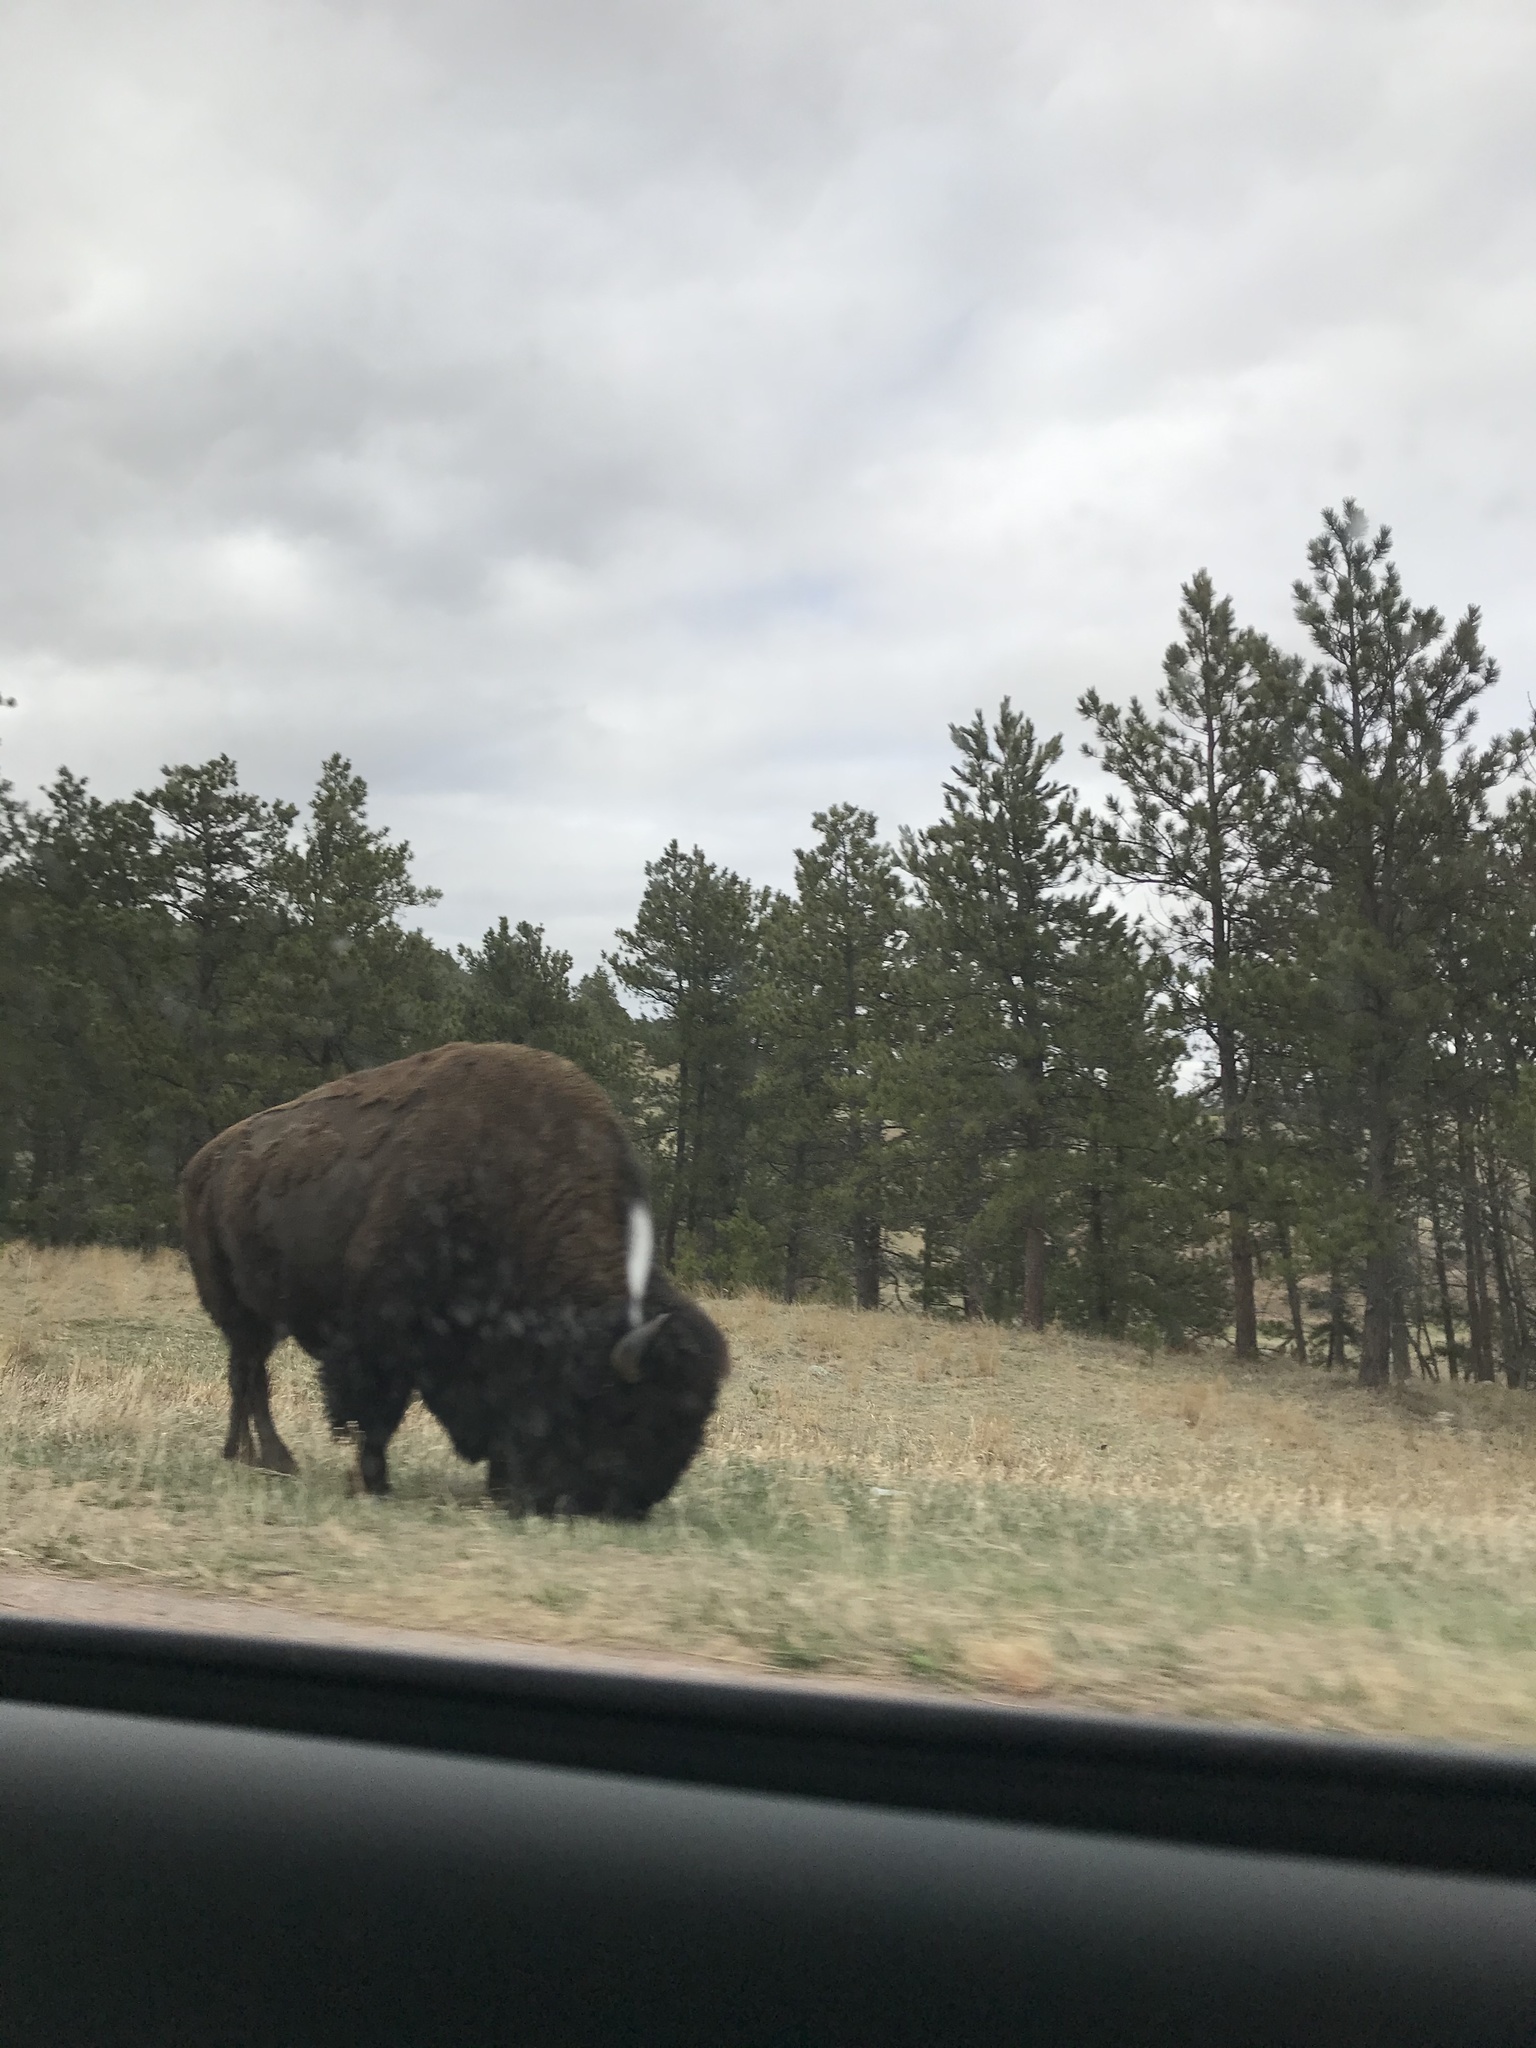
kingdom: Animalia
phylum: Chordata
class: Mammalia
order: Artiodactyla
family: Bovidae
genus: Bison
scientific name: Bison bison
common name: American bison
